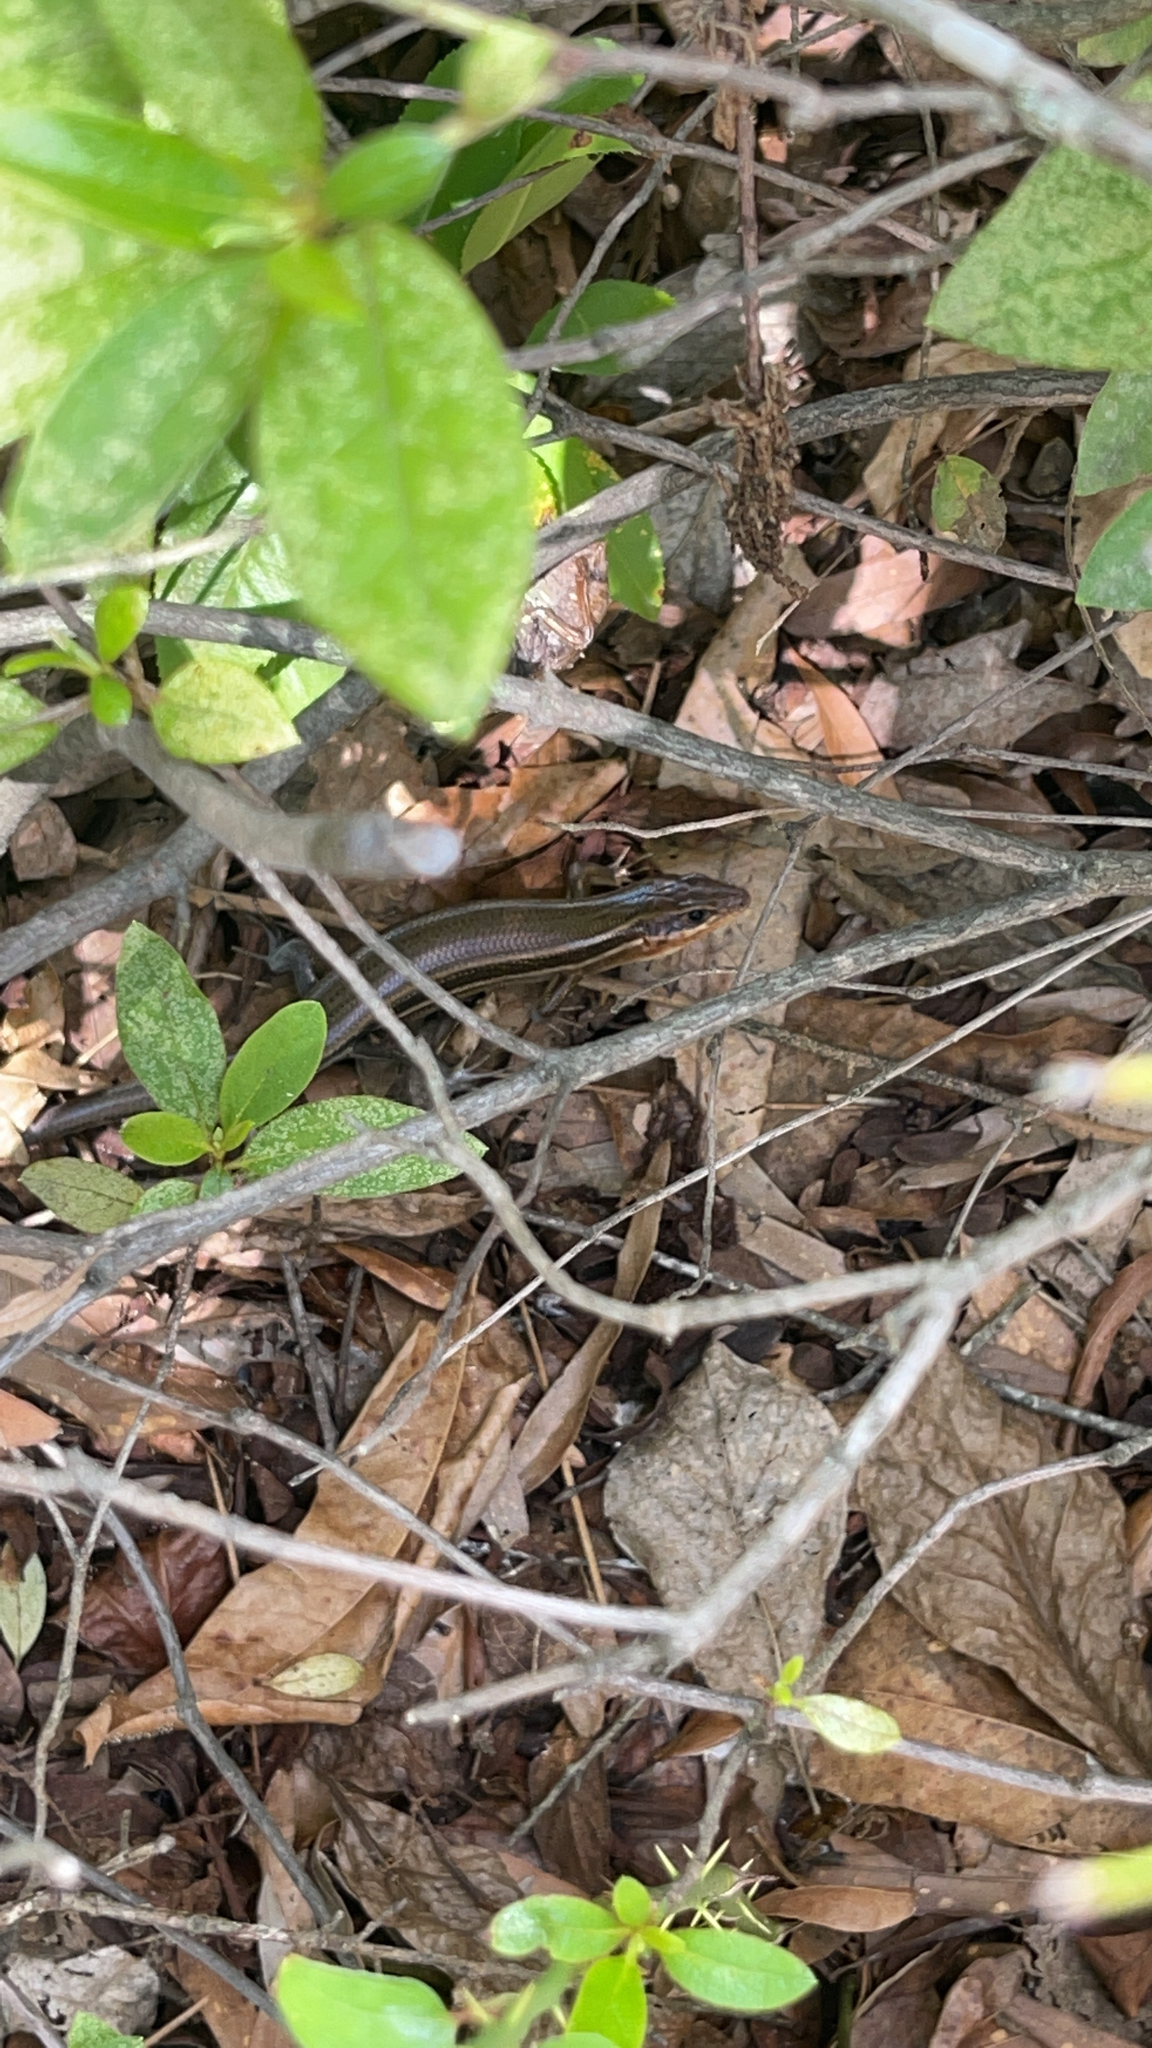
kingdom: Animalia
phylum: Chordata
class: Squamata
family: Scincidae
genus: Plestiodon
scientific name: Plestiodon laticeps
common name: Broadhead skink
